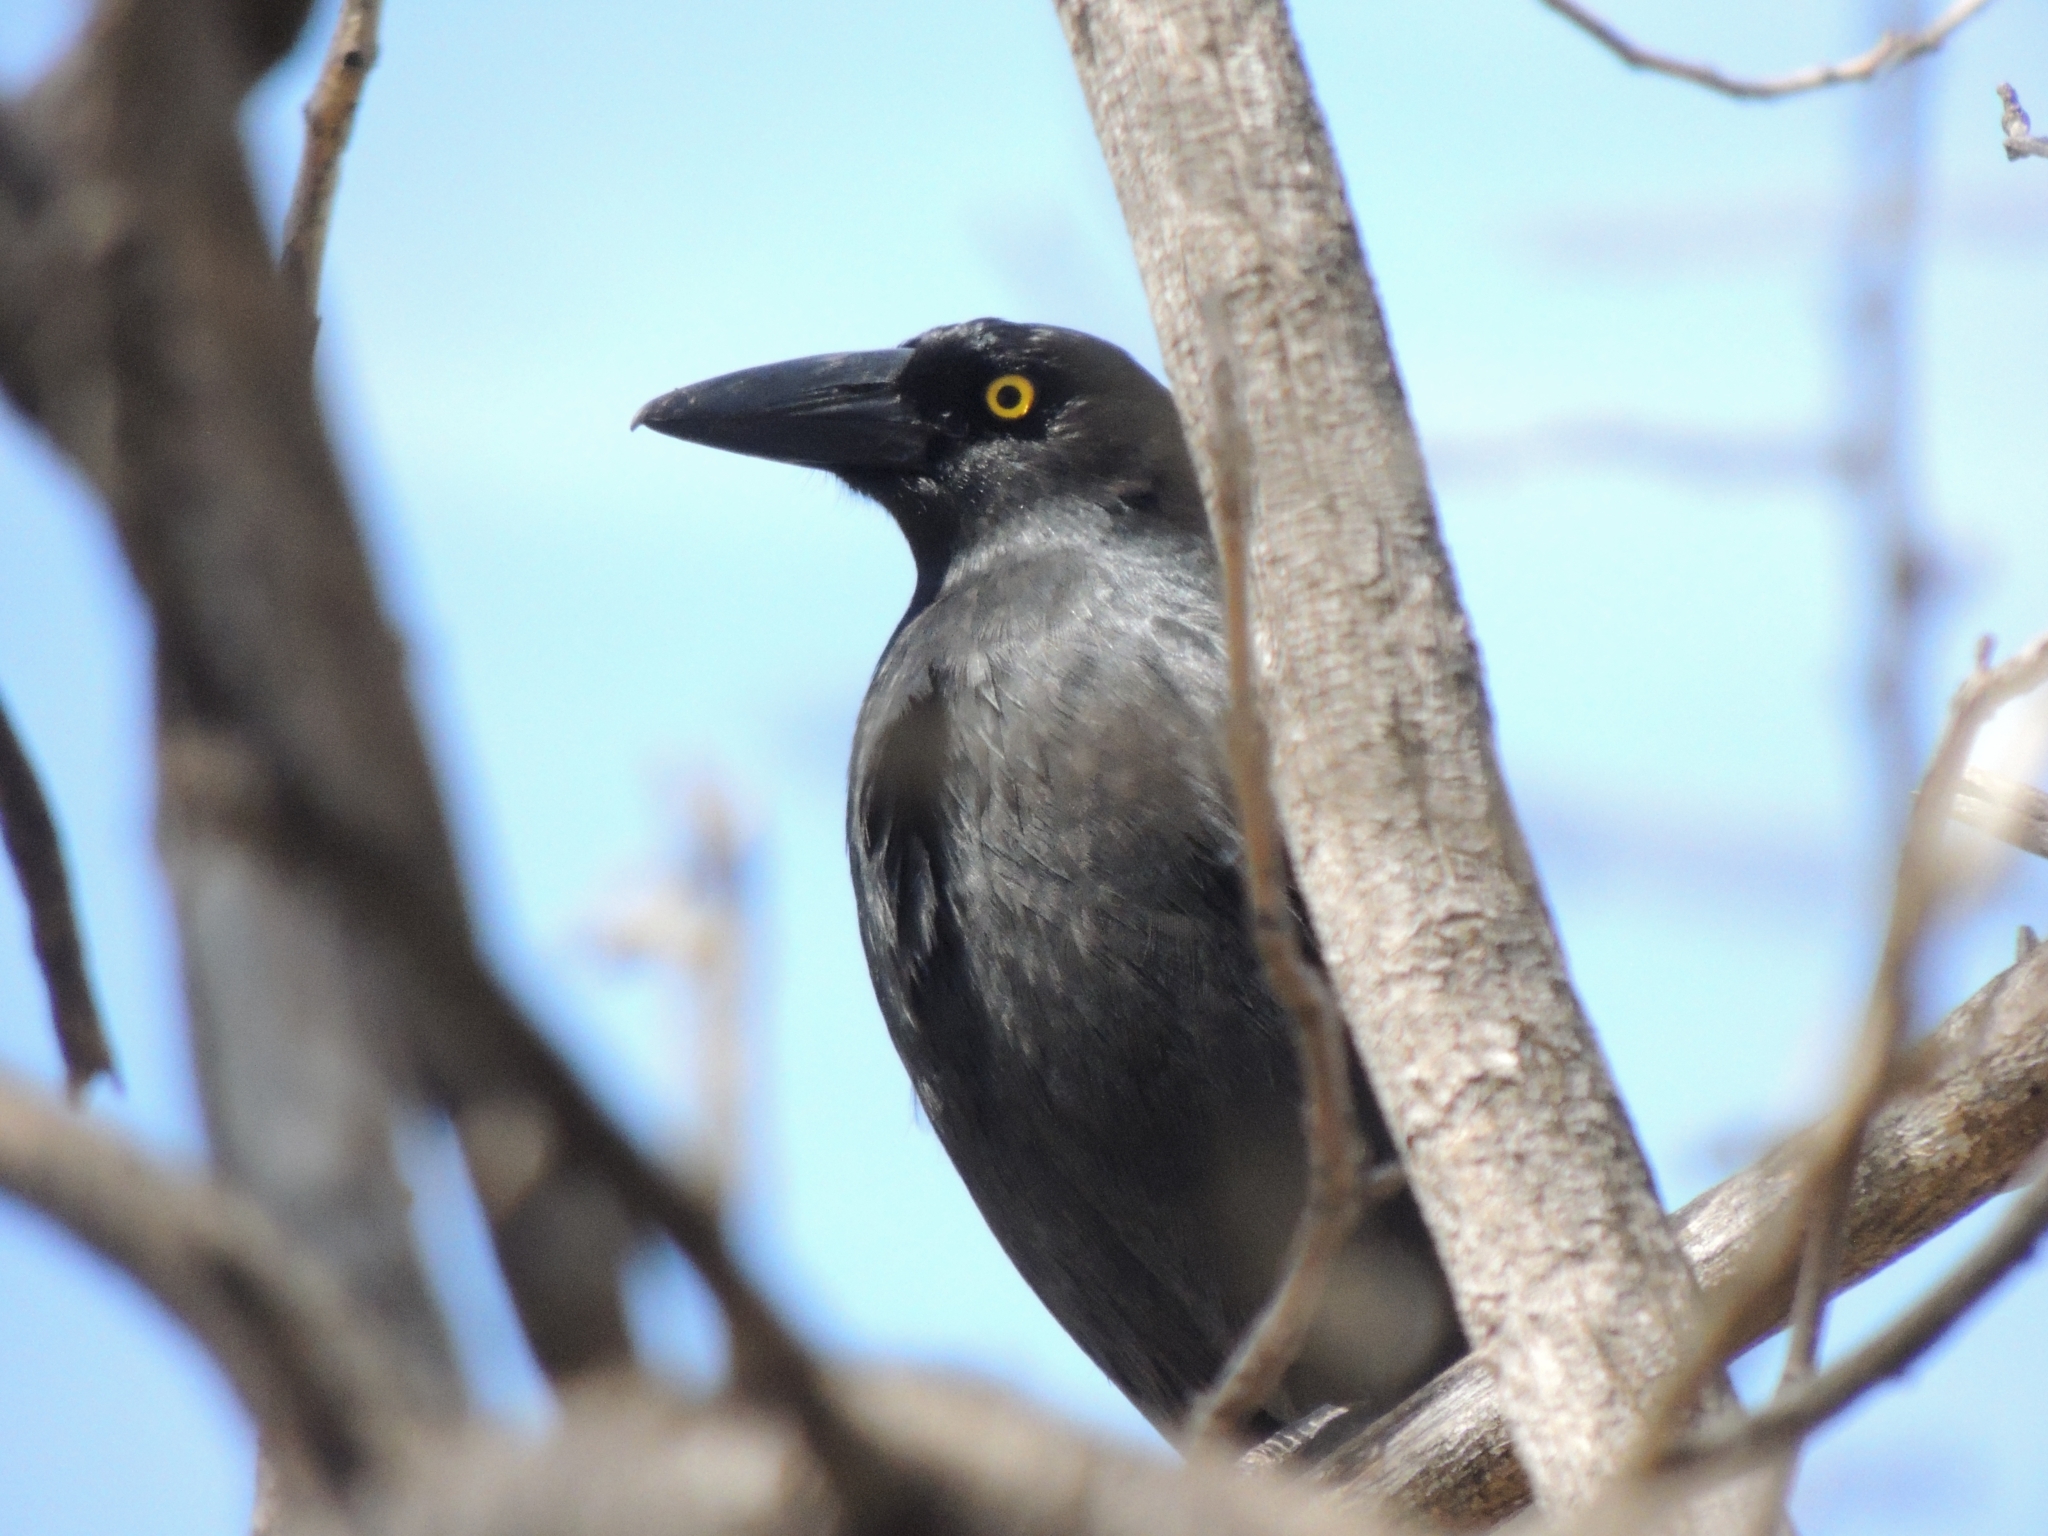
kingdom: Animalia
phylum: Chordata
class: Aves
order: Passeriformes
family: Cracticidae
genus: Strepera
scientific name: Strepera graculina
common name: Pied currawong
